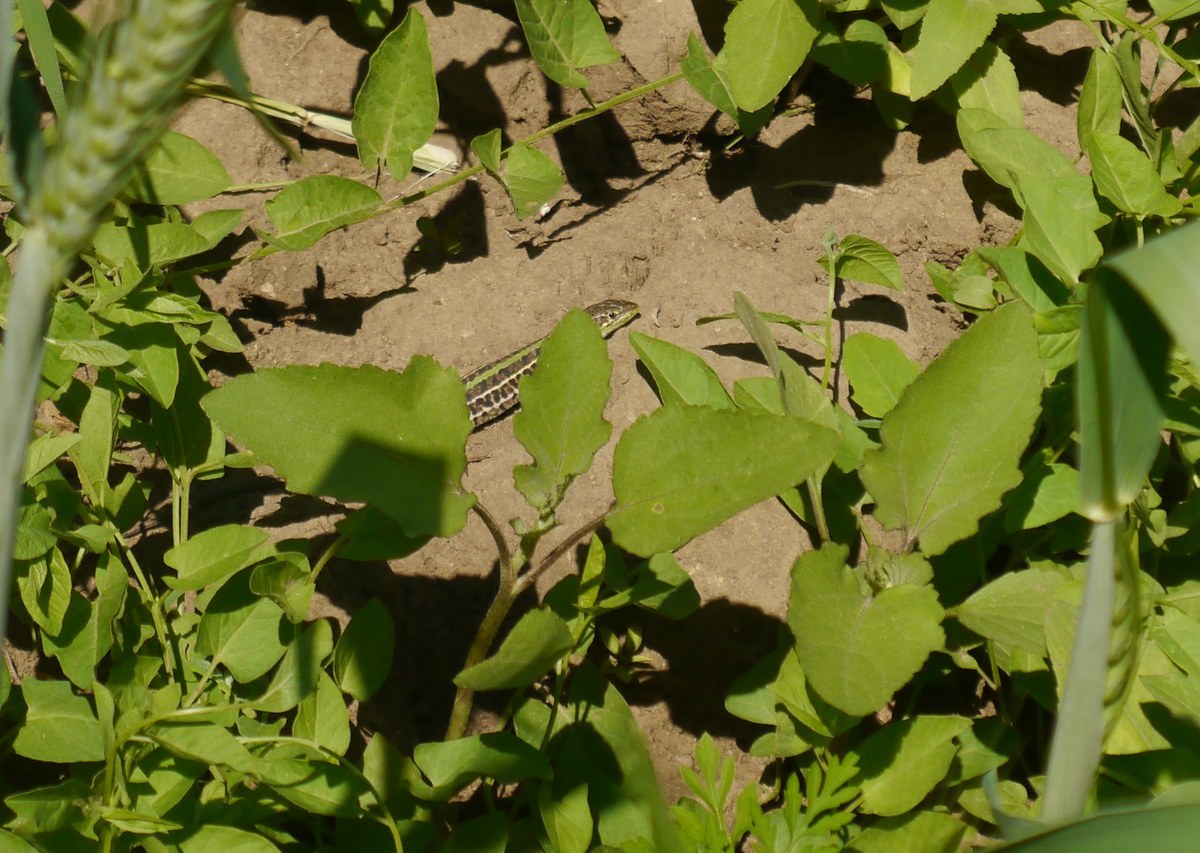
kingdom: Animalia
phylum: Chordata
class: Squamata
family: Lacertidae
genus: Podarcis
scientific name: Podarcis tauricus
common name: Balkan wall lizard
